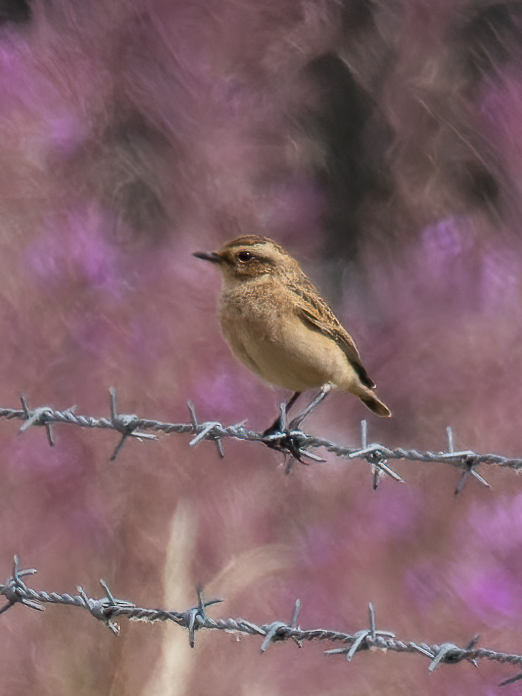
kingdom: Animalia
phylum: Chordata
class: Aves
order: Passeriformes
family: Muscicapidae
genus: Saxicola
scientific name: Saxicola rubetra
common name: Whinchat
